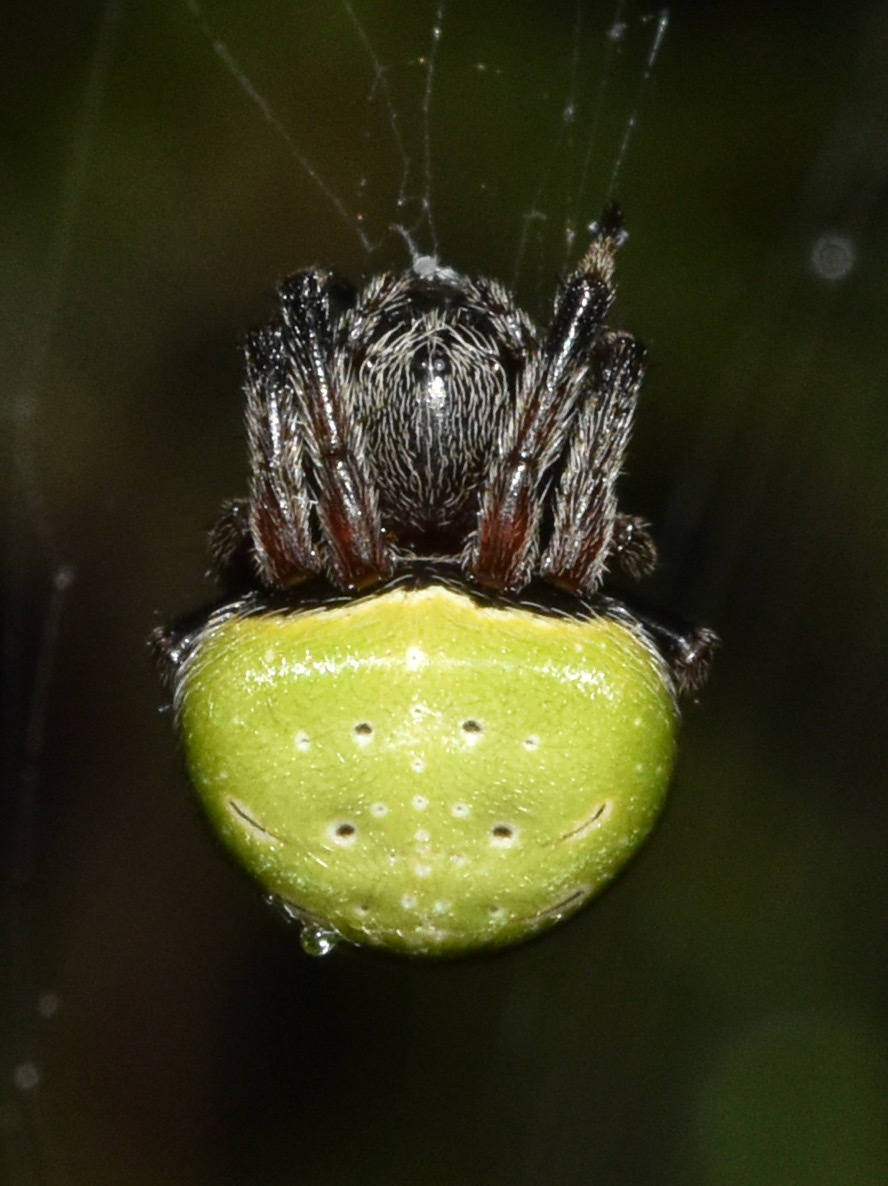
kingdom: Animalia
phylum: Arthropoda
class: Arachnida
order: Araneae
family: Araneidae
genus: Araneus
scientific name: Araneus apricus
